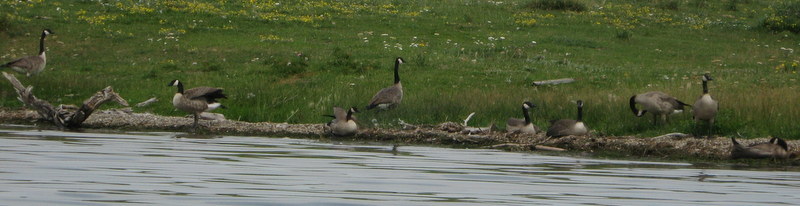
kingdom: Animalia
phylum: Chordata
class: Aves
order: Anseriformes
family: Anatidae
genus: Branta
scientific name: Branta canadensis
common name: Canada goose
